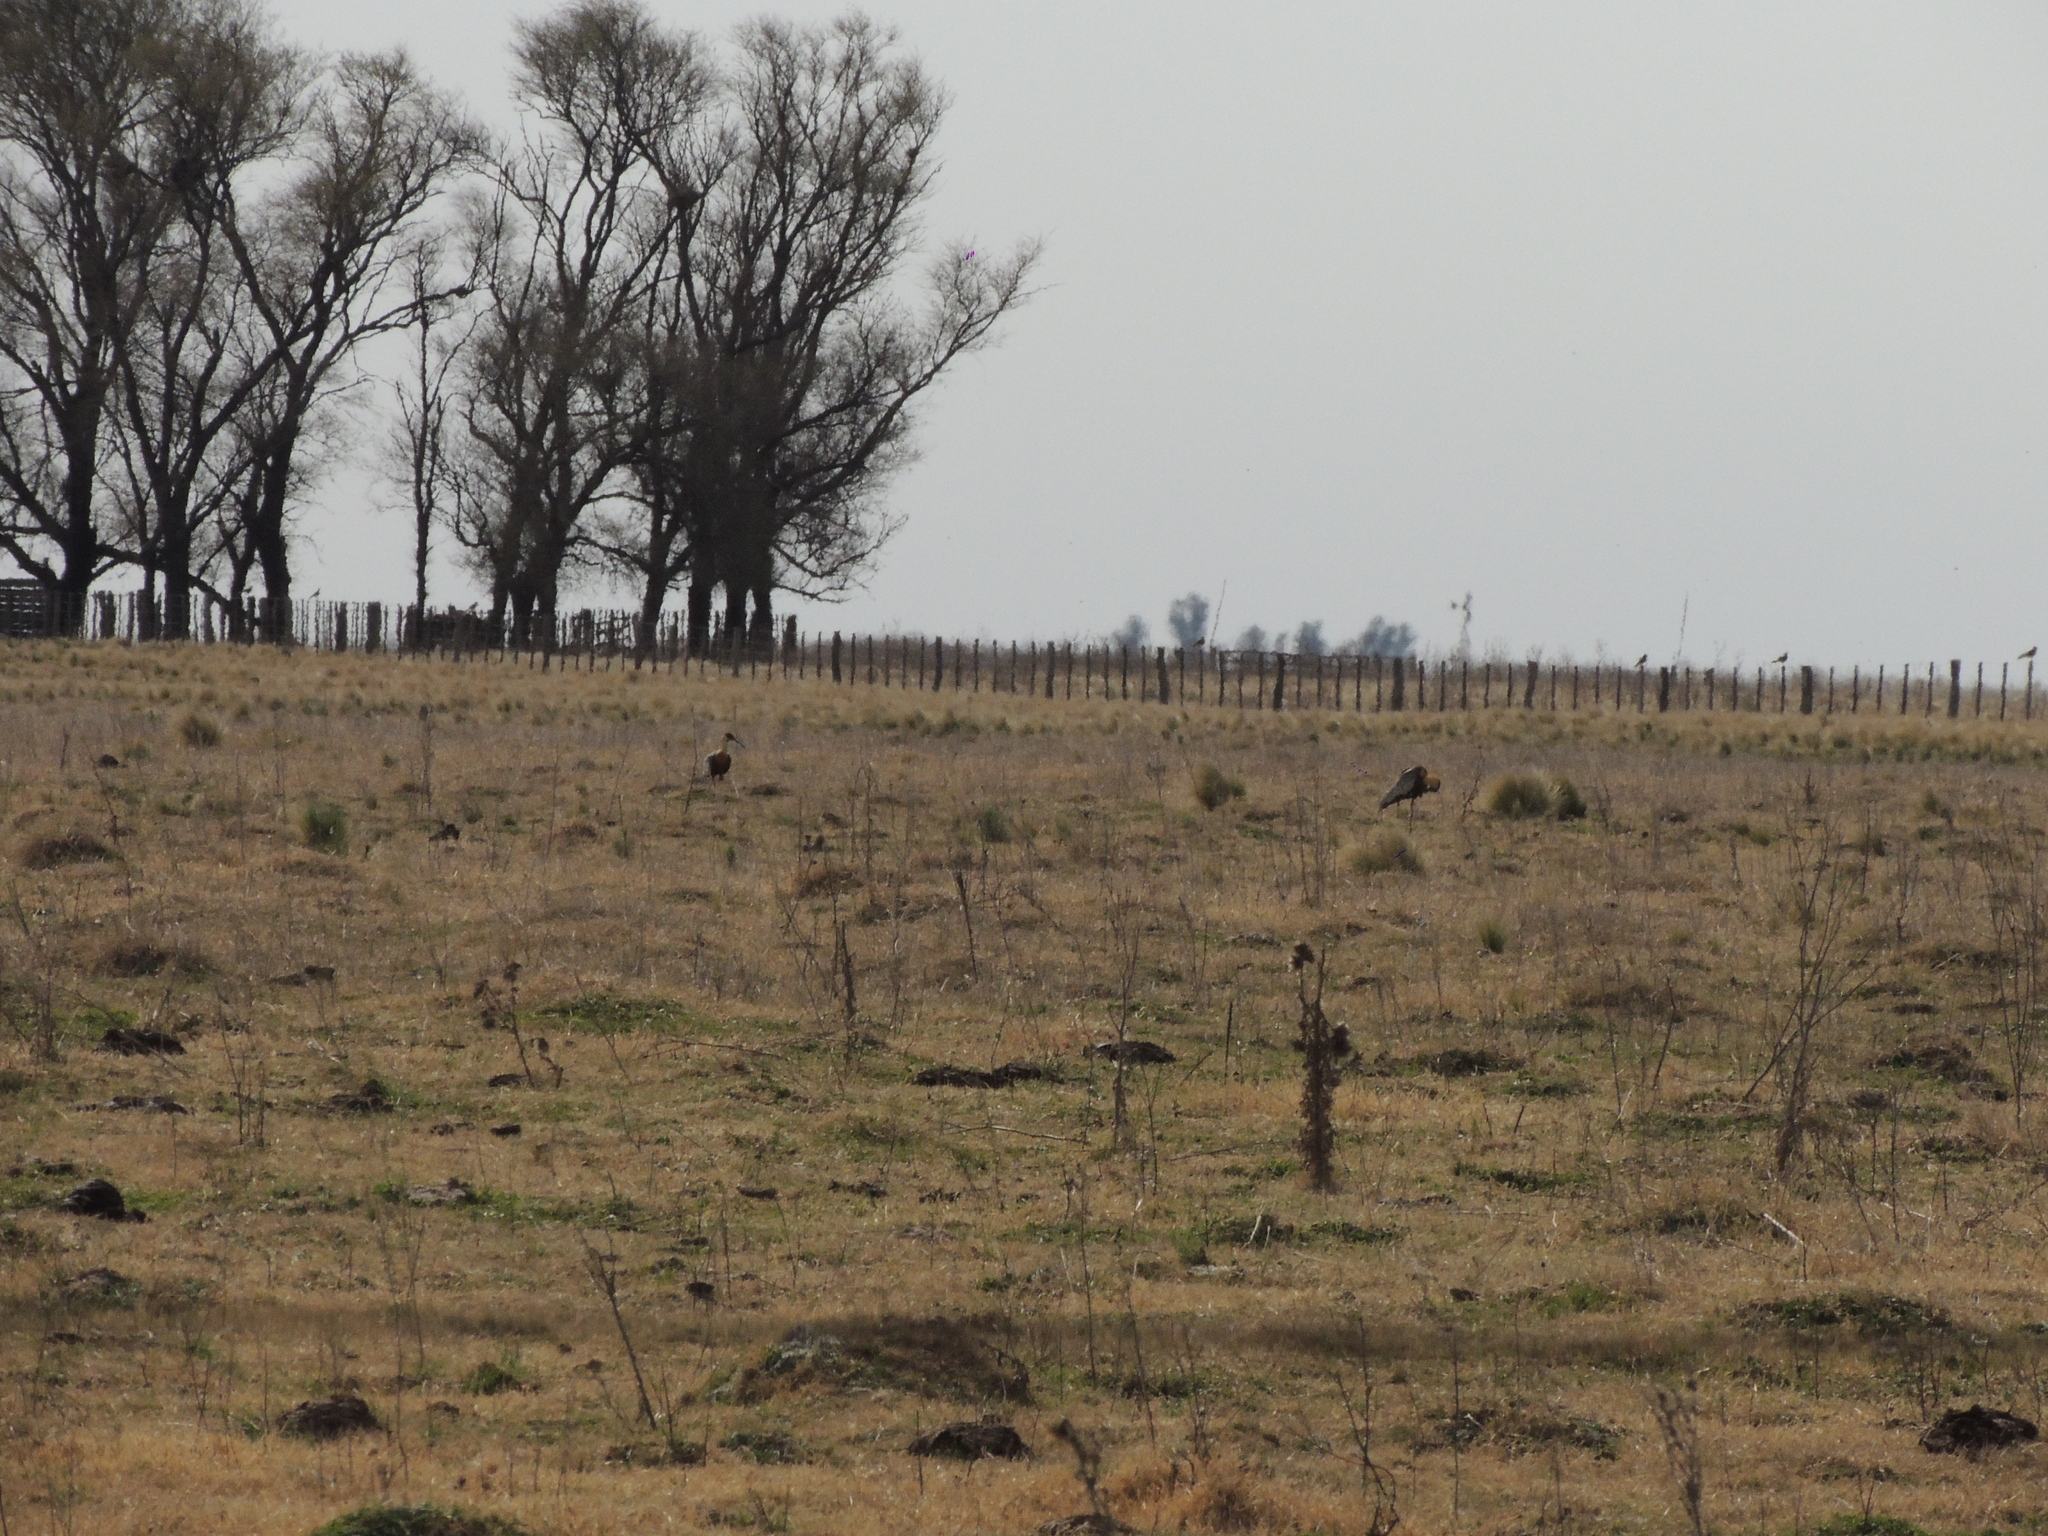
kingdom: Animalia
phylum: Chordata
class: Aves
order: Pelecaniformes
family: Threskiornithidae
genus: Theristicus
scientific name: Theristicus melanopis
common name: Black-faced ibis
